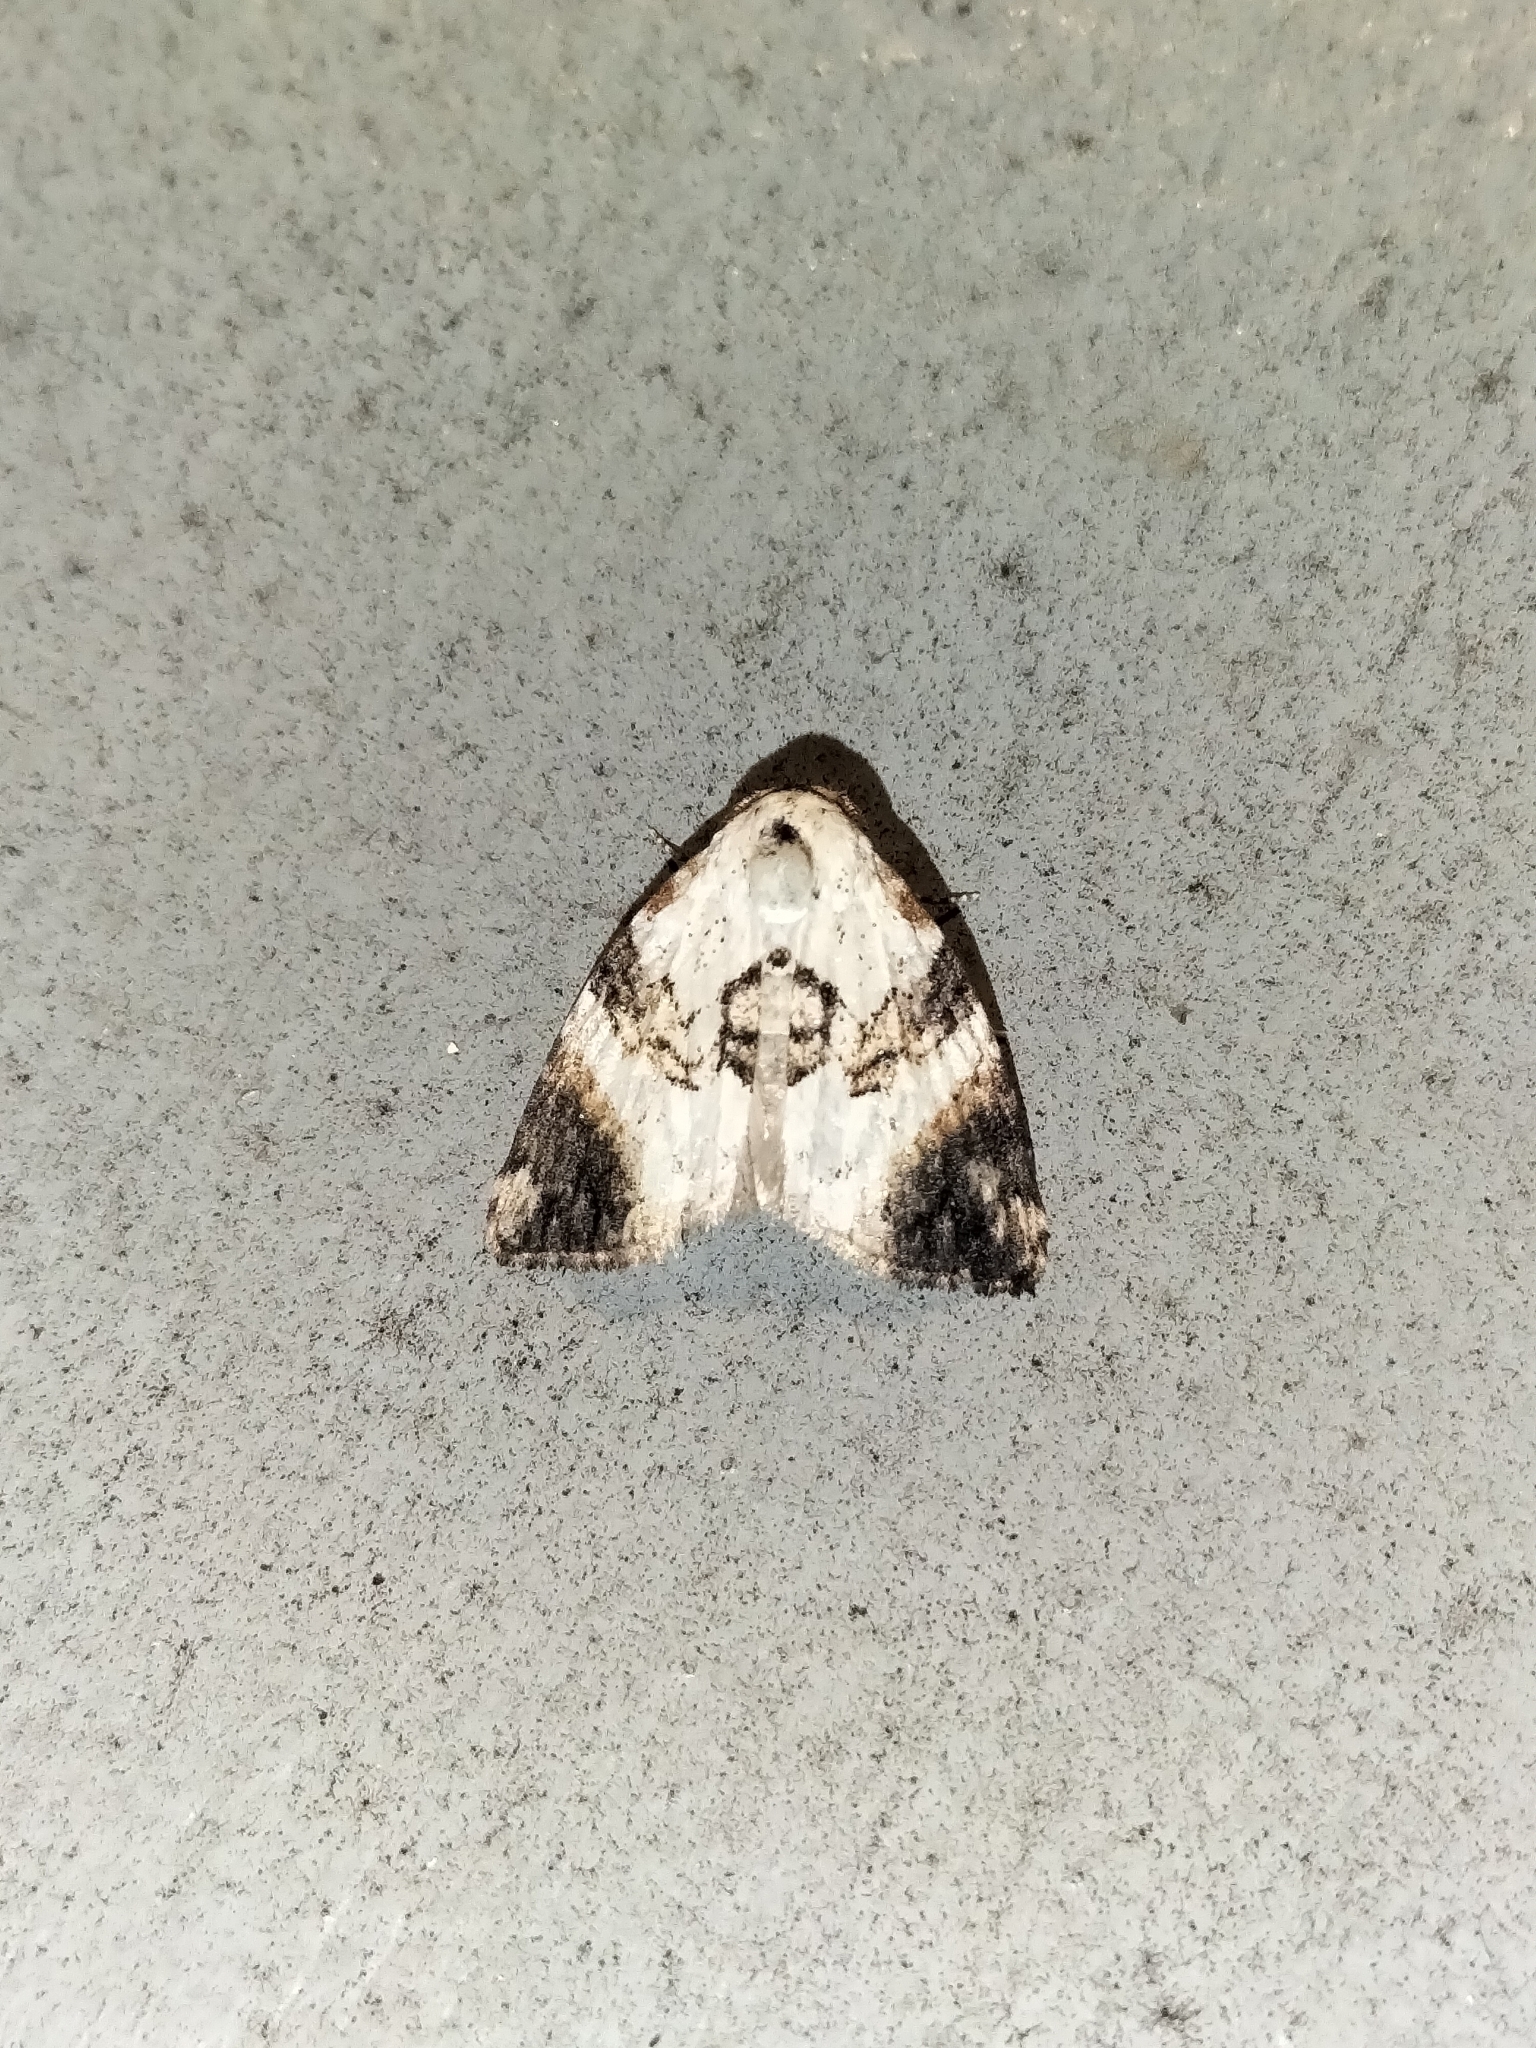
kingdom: Animalia
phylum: Arthropoda
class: Insecta
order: Lepidoptera
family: Nolidae
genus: Acatapaustus
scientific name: Acatapaustus atrinota
